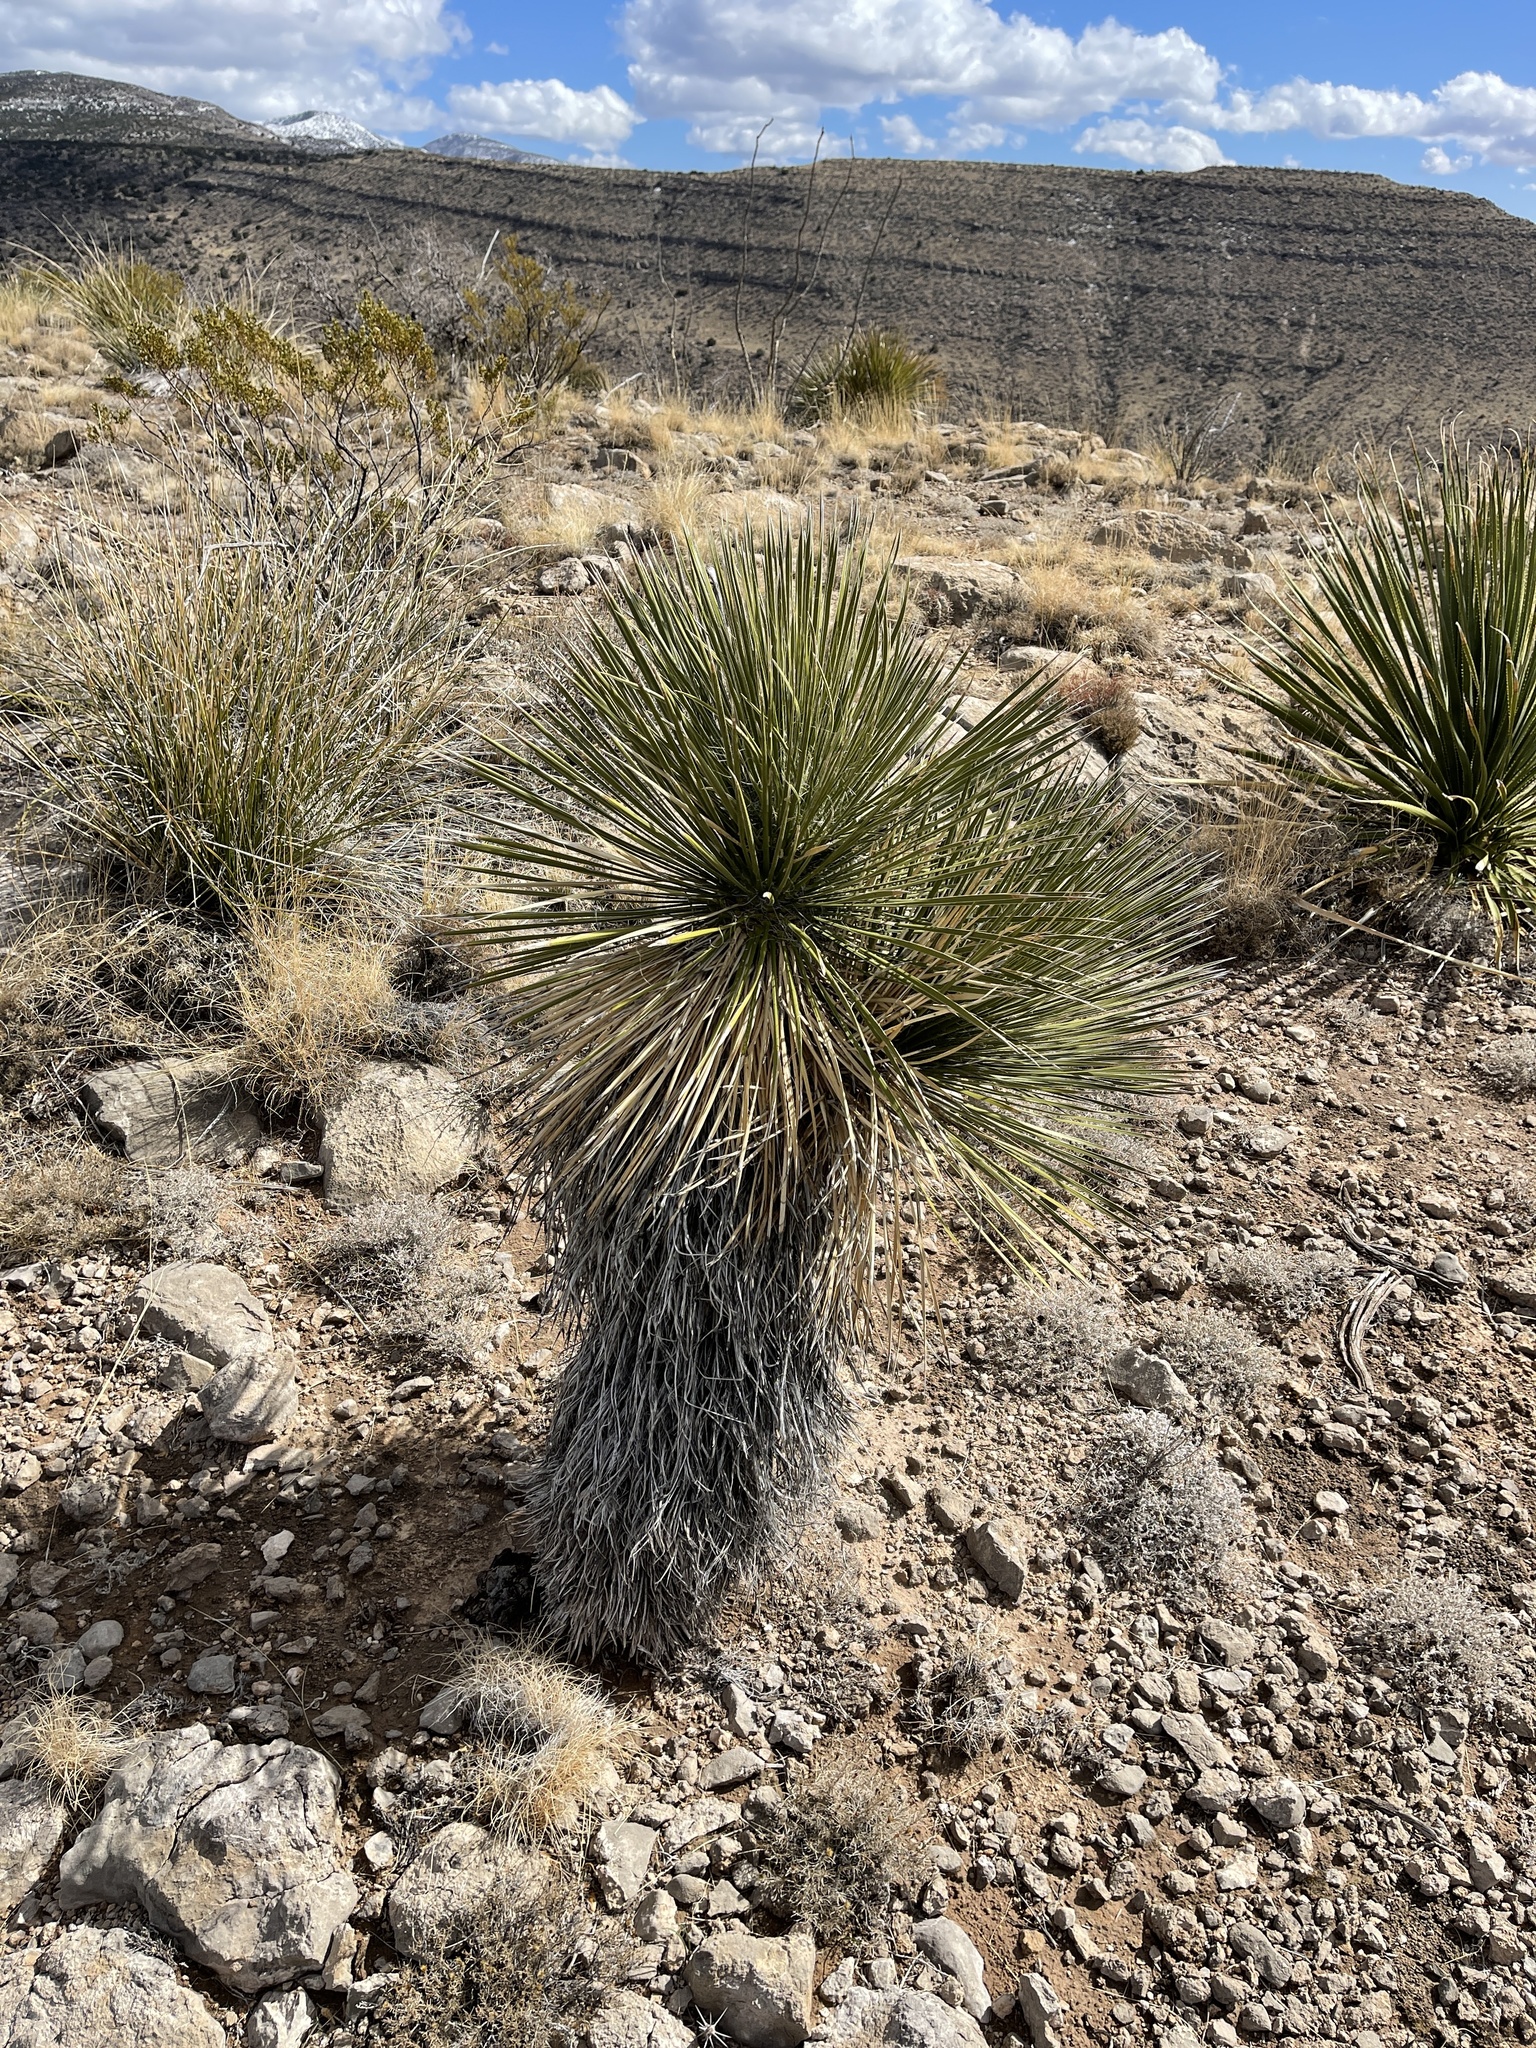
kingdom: Plantae
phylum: Tracheophyta
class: Liliopsida
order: Asparagales
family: Asparagaceae
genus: Yucca
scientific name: Yucca elata
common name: Palmella
